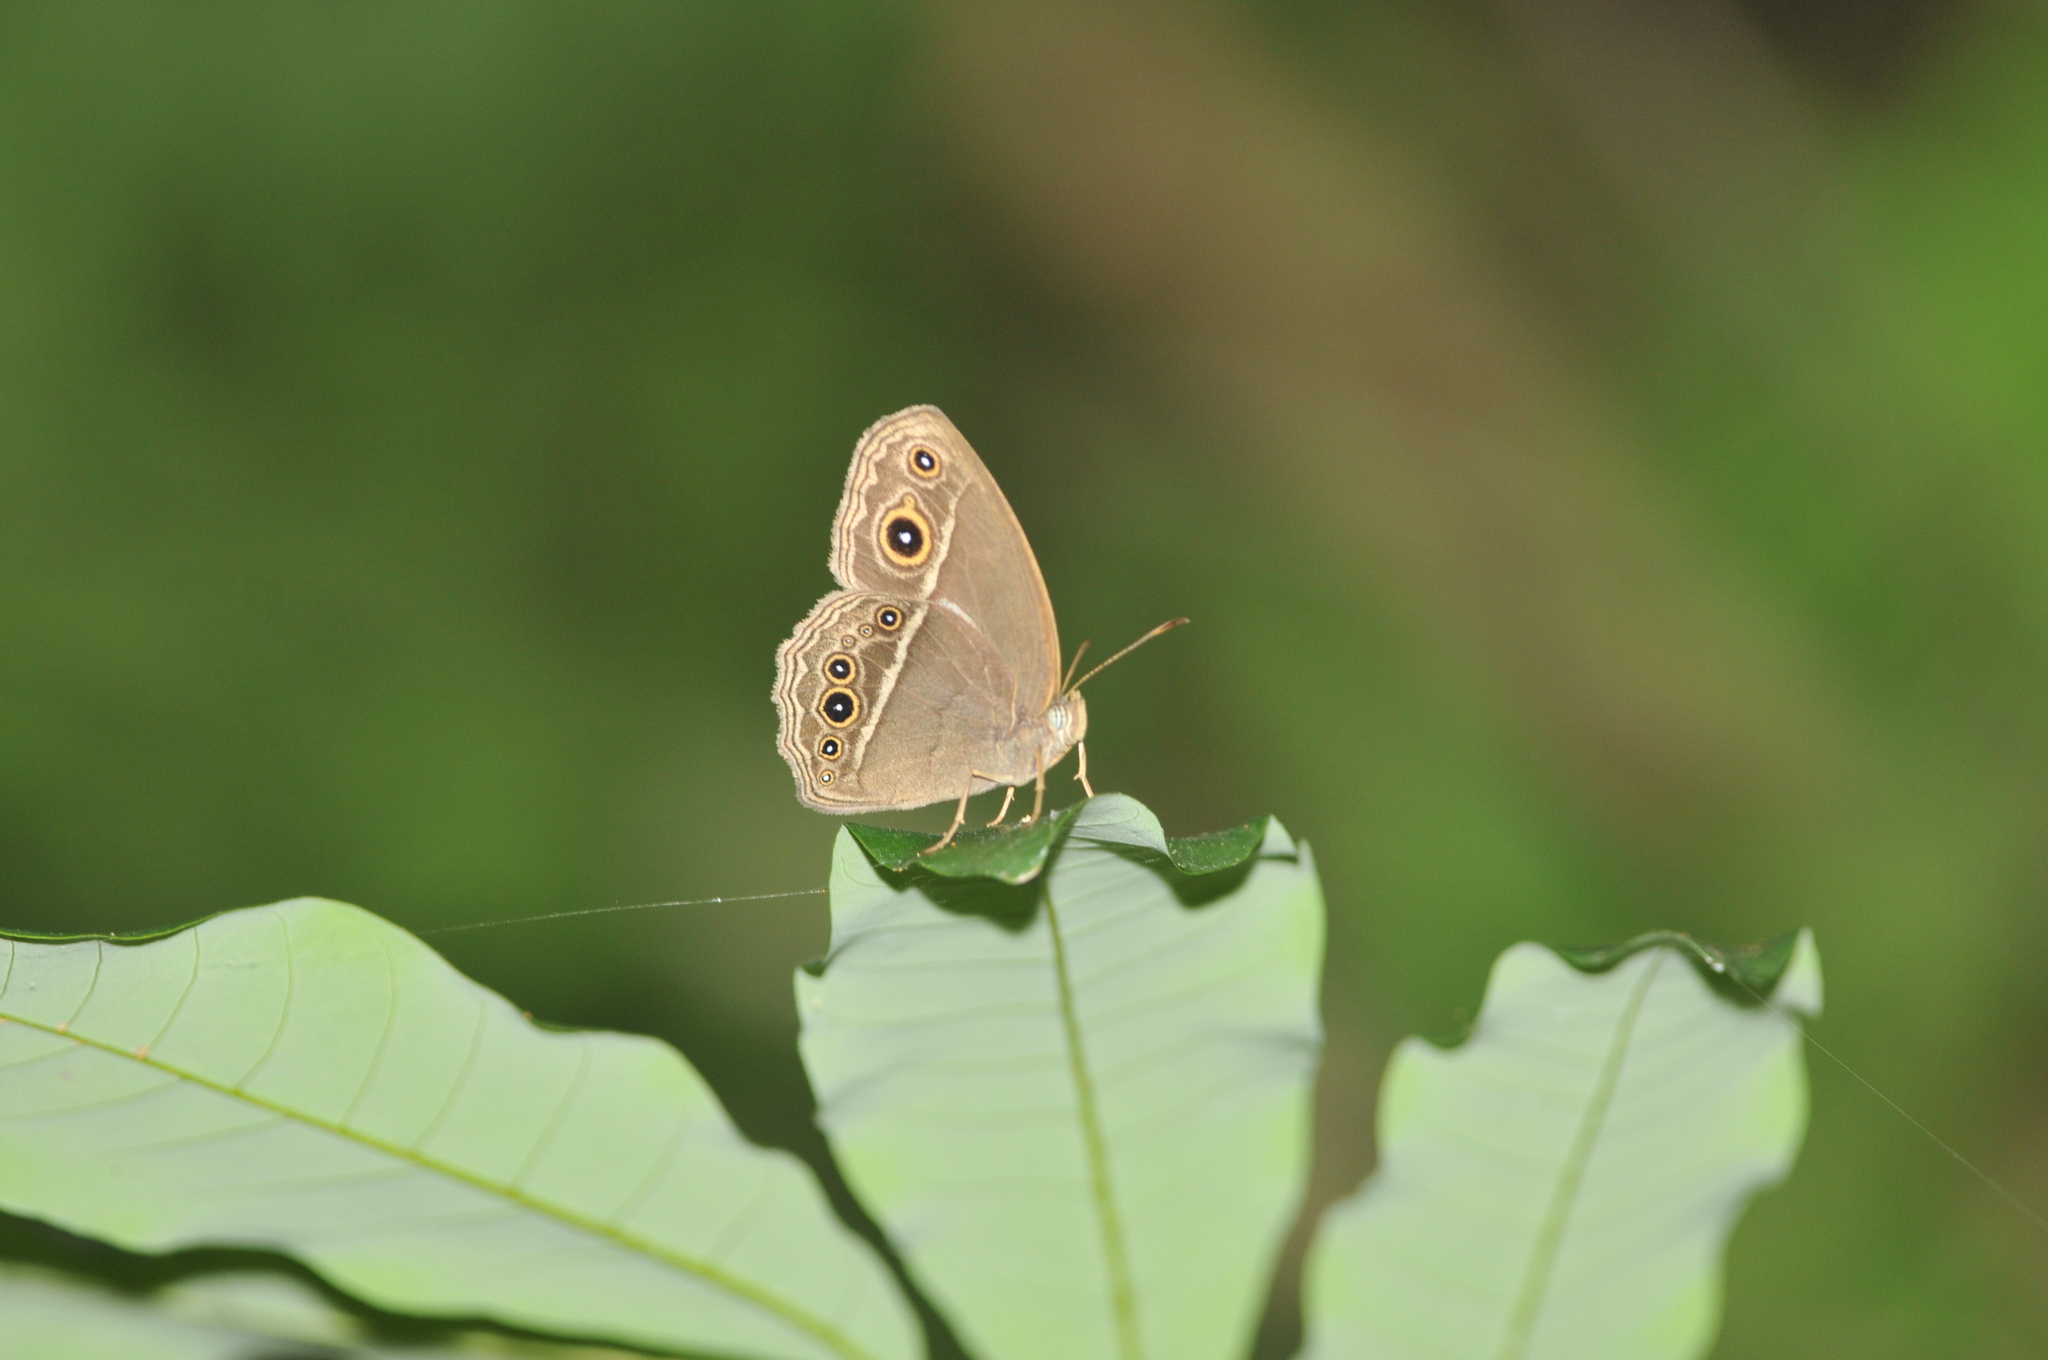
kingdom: Animalia
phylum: Arthropoda
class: Insecta
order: Lepidoptera
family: Nymphalidae
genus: Mycalesis
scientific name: Mycalesis horsfieldii
